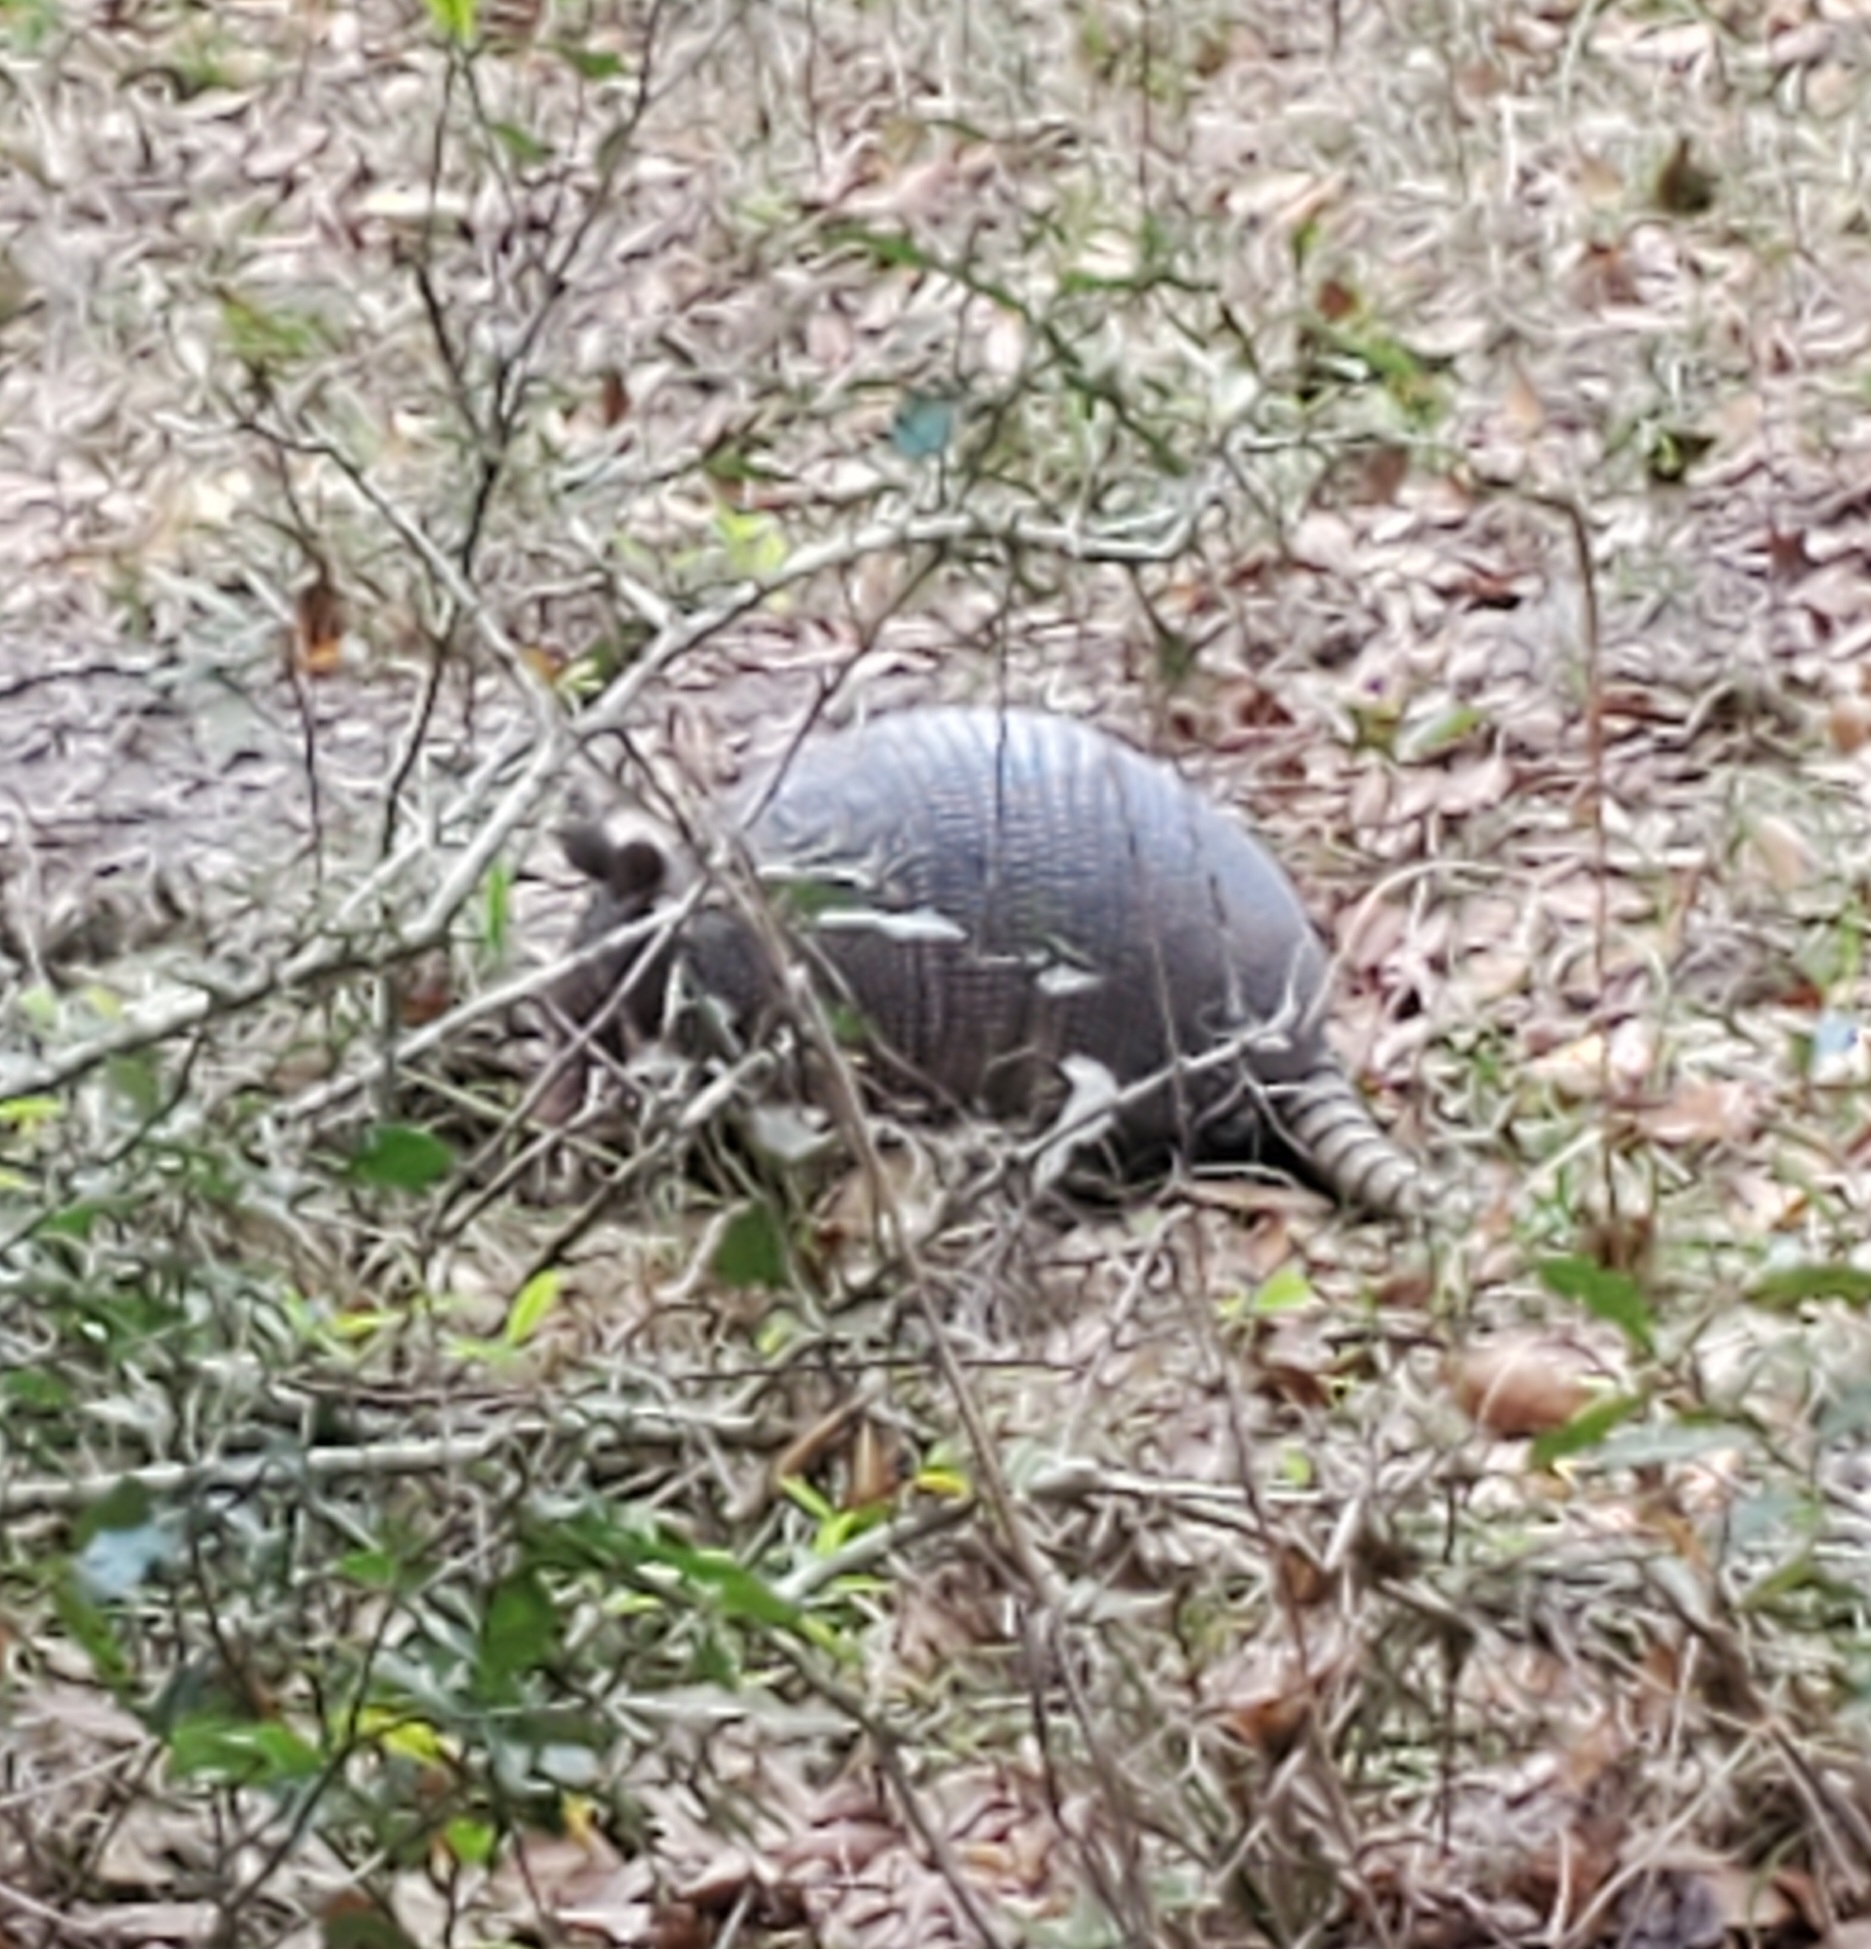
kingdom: Animalia
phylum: Chordata
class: Mammalia
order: Cingulata
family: Dasypodidae
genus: Dasypus
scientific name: Dasypus novemcinctus
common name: Nine-banded armadillo
